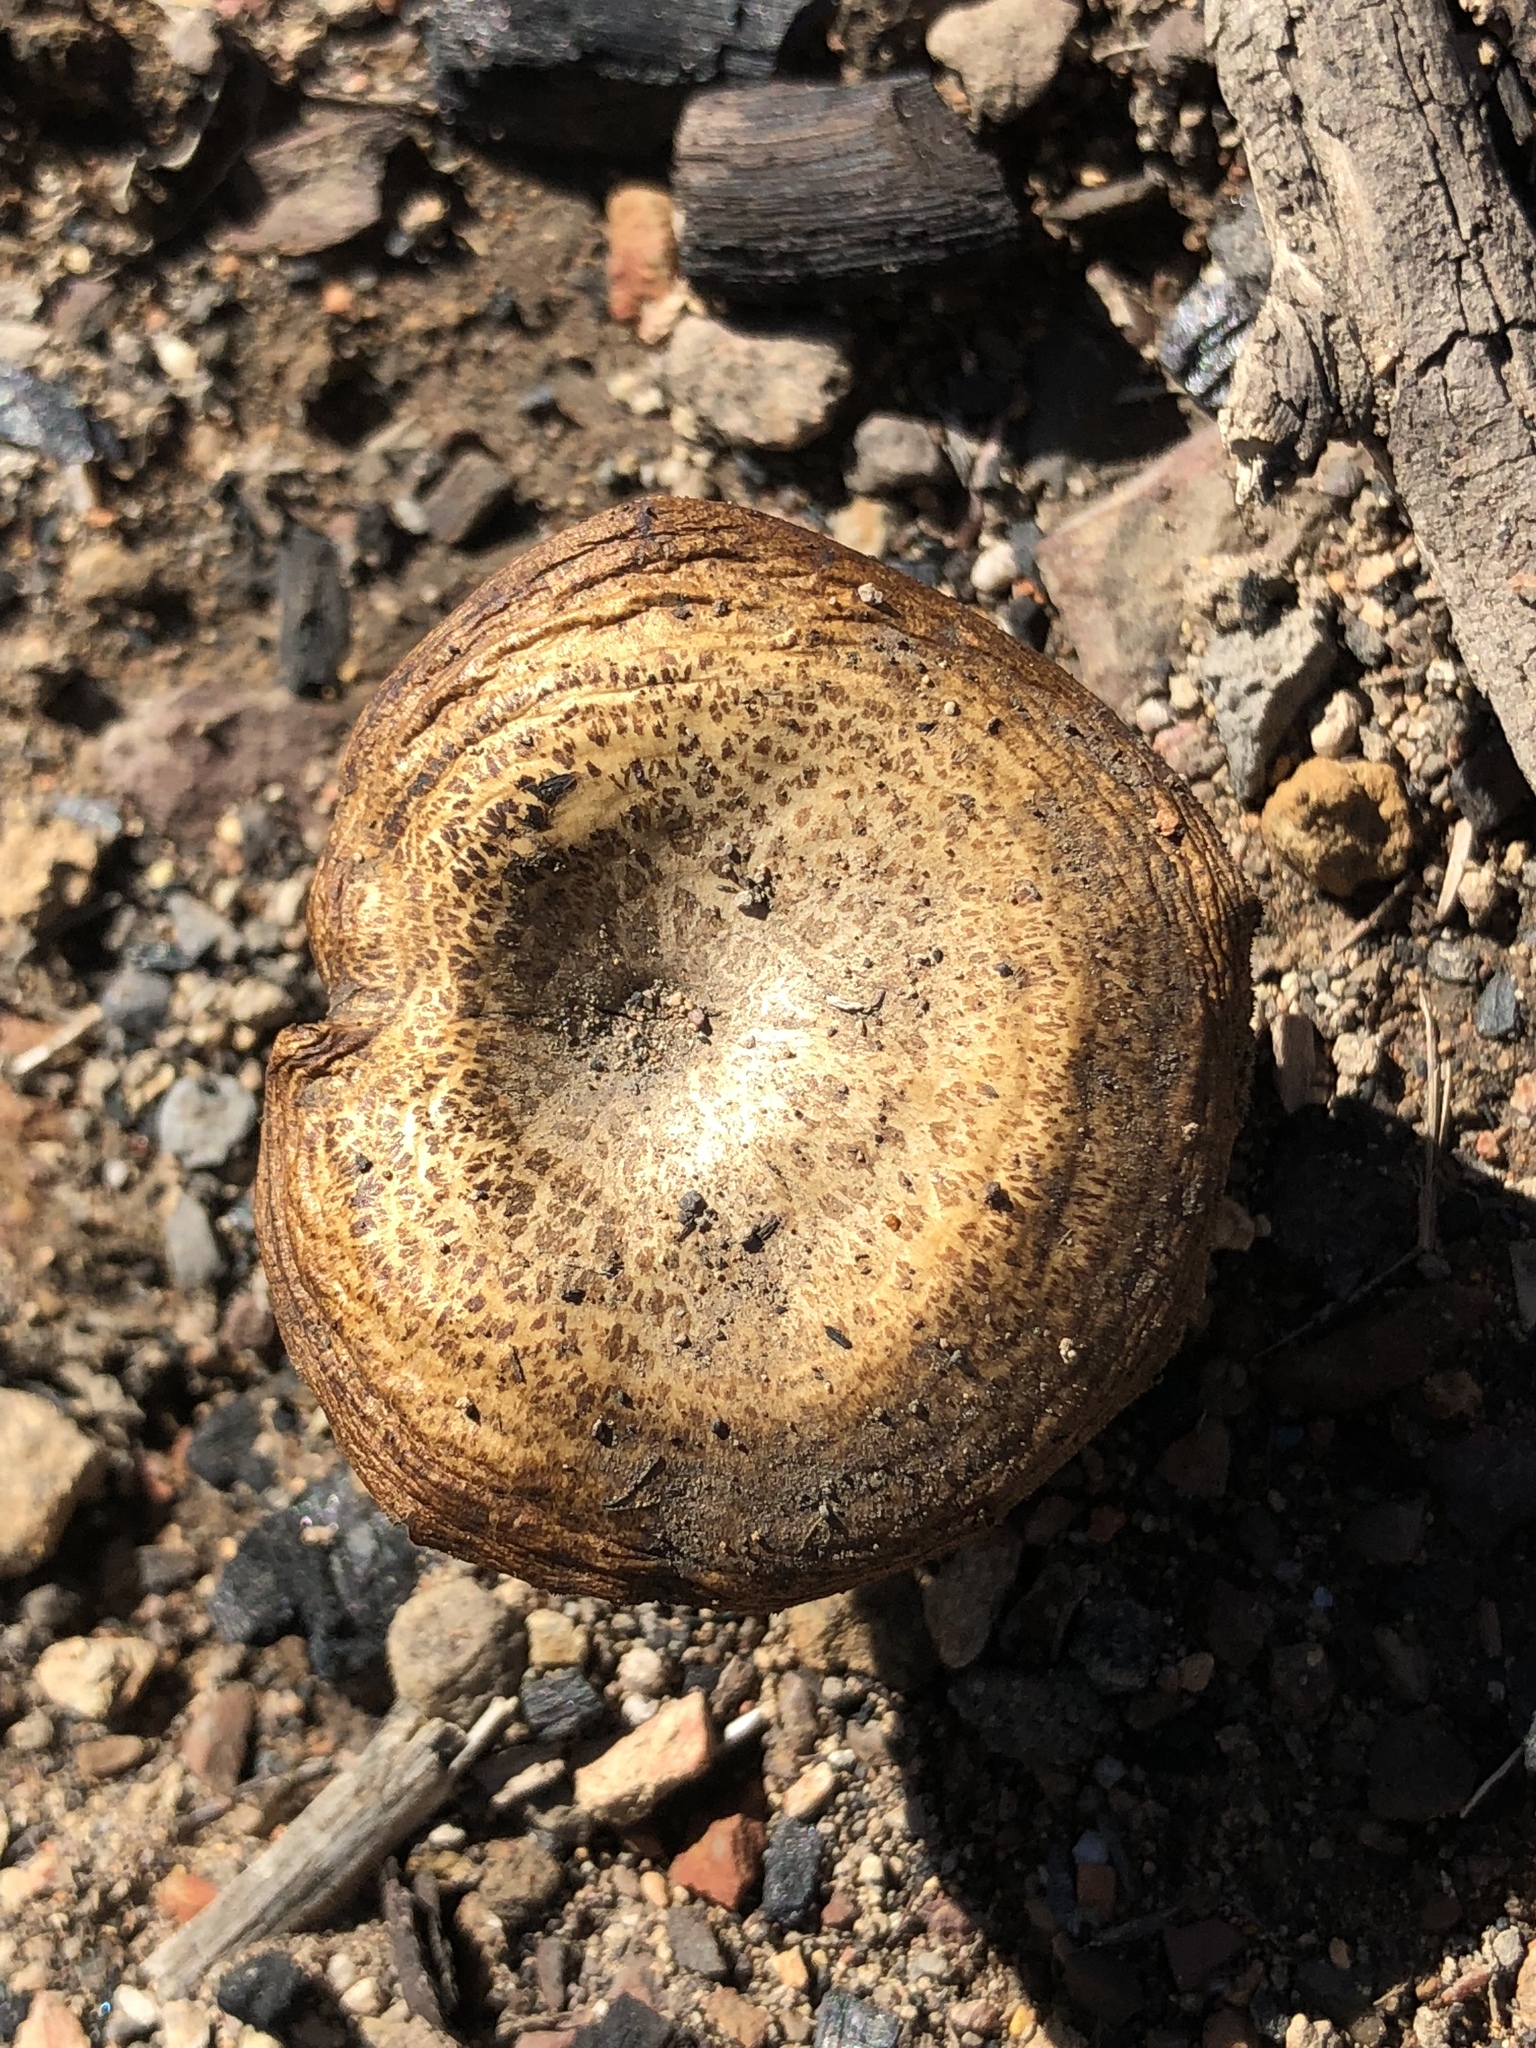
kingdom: Fungi
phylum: Basidiomycota
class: Agaricomycetes
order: Polyporales
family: Polyporaceae
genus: Lentinus
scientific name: Lentinus arcularius
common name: Spring polypore
